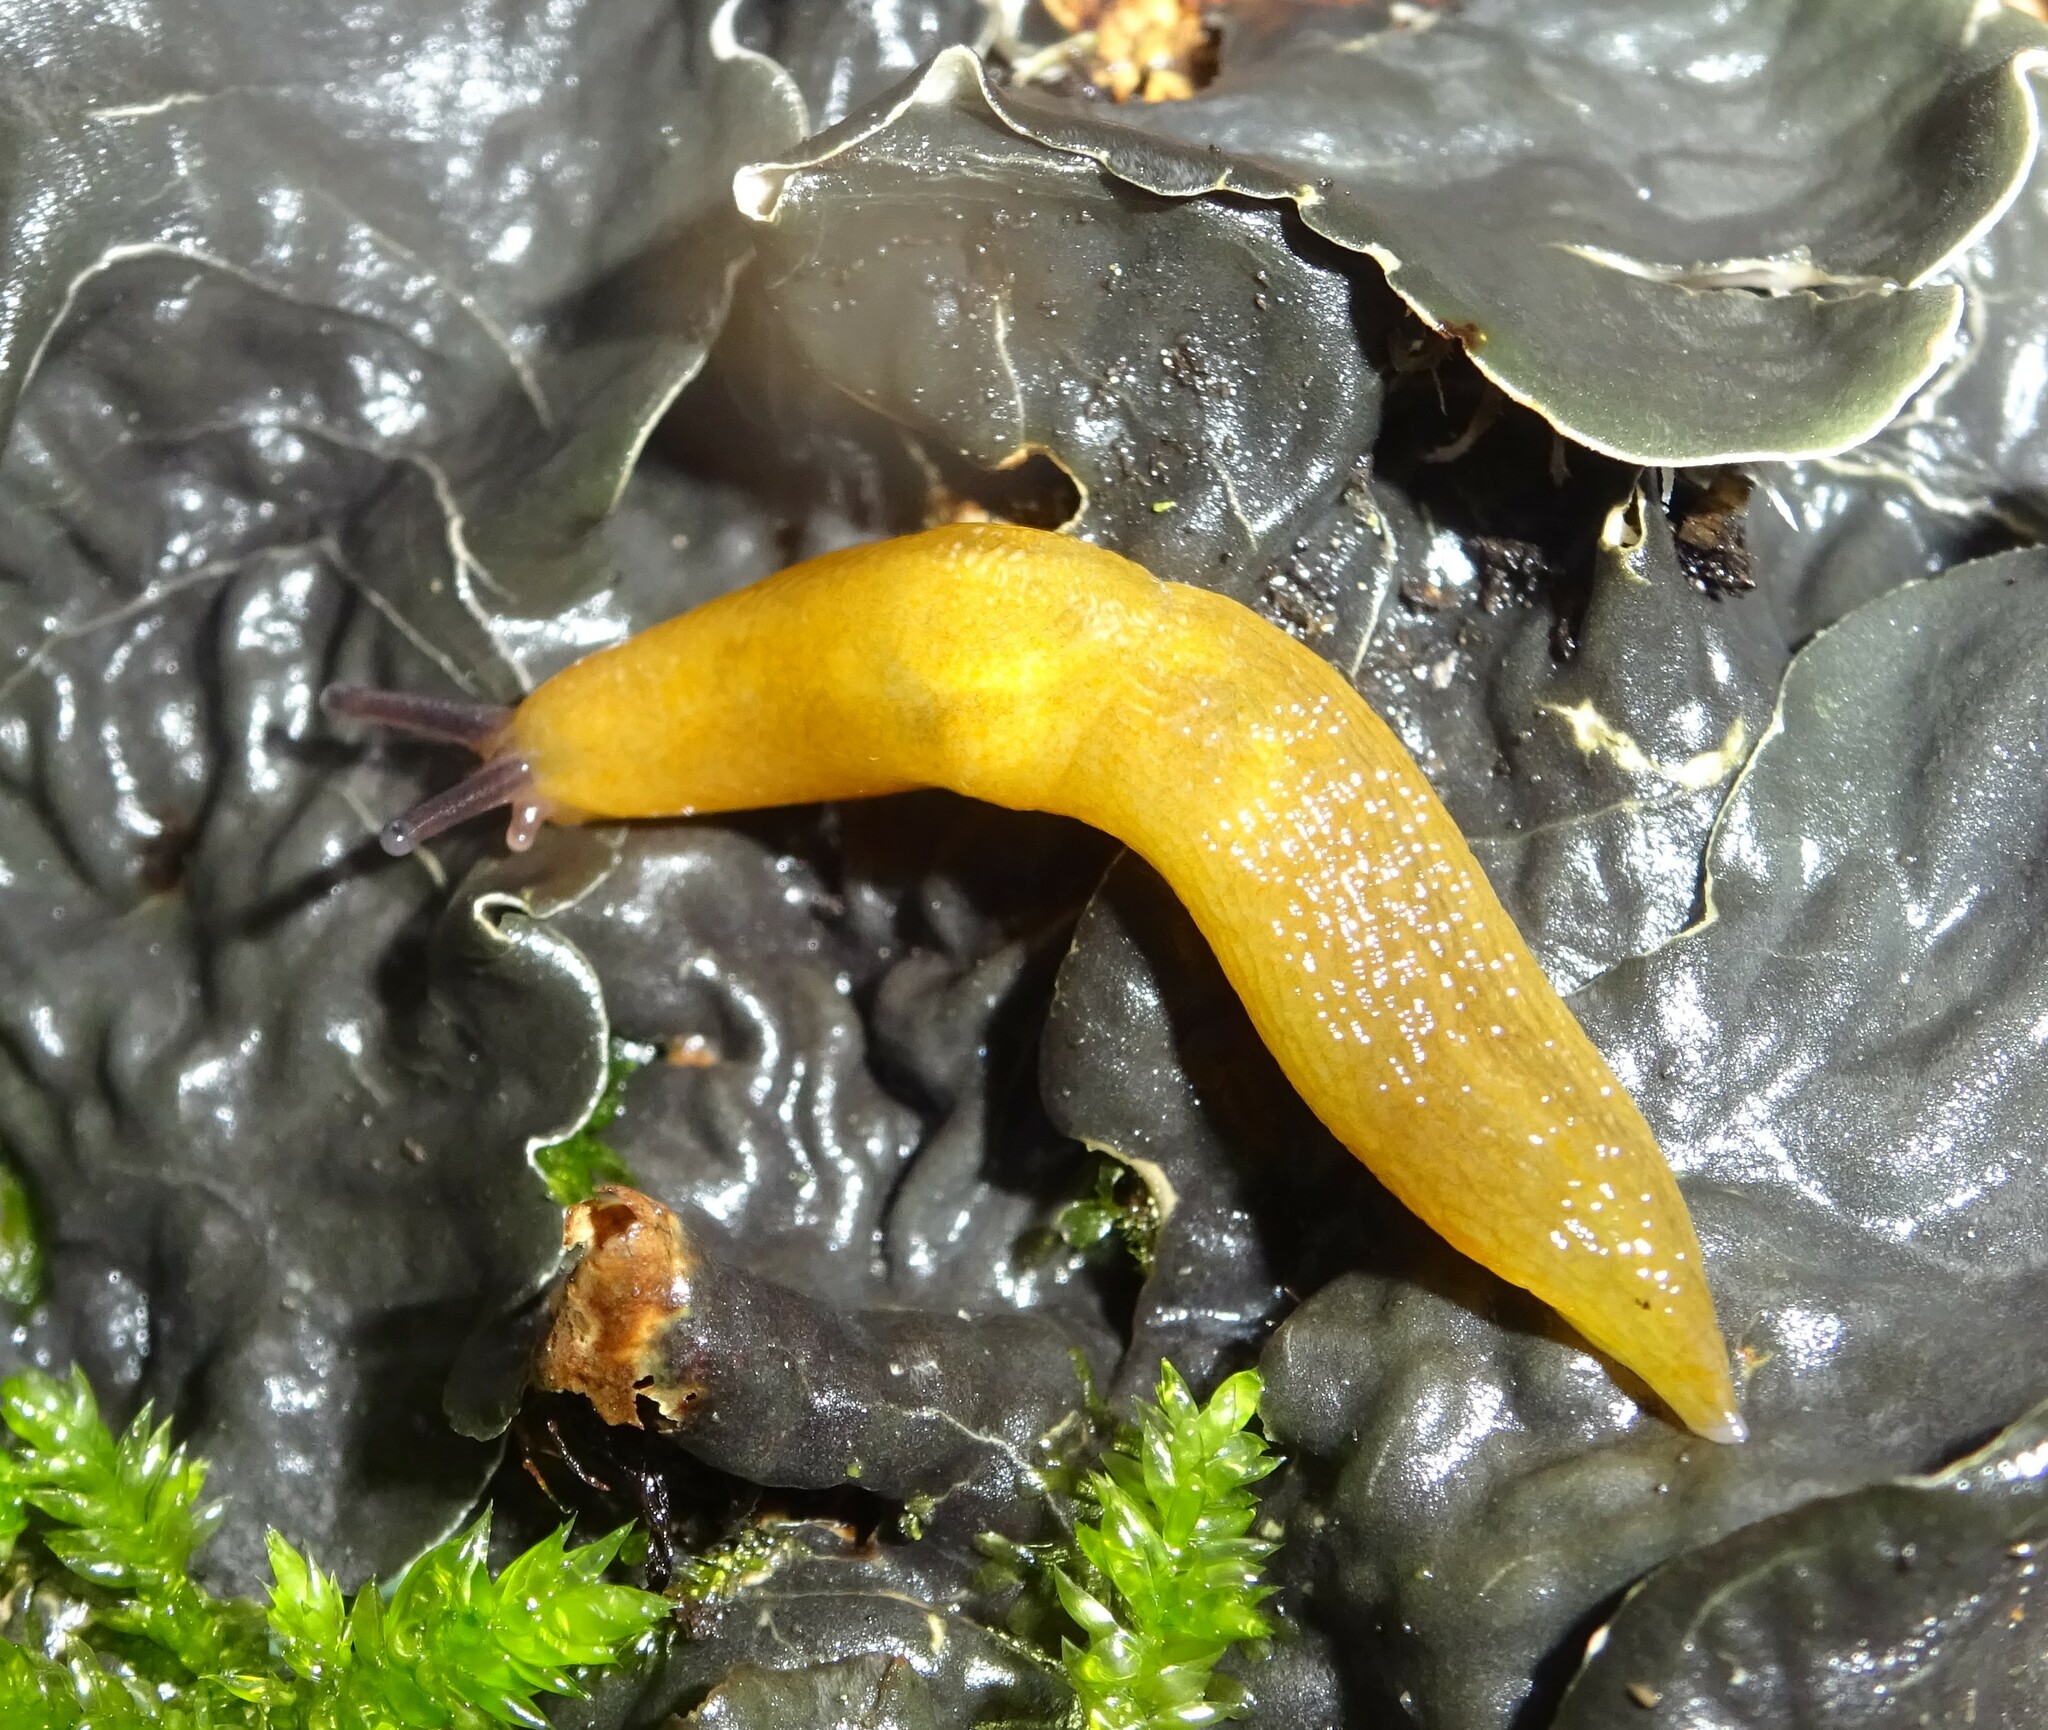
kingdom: Animalia
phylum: Mollusca
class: Gastropoda
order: Stylommatophora
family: Limacidae
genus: Malacolimax
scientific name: Malacolimax tenellus
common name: Lemon slug
